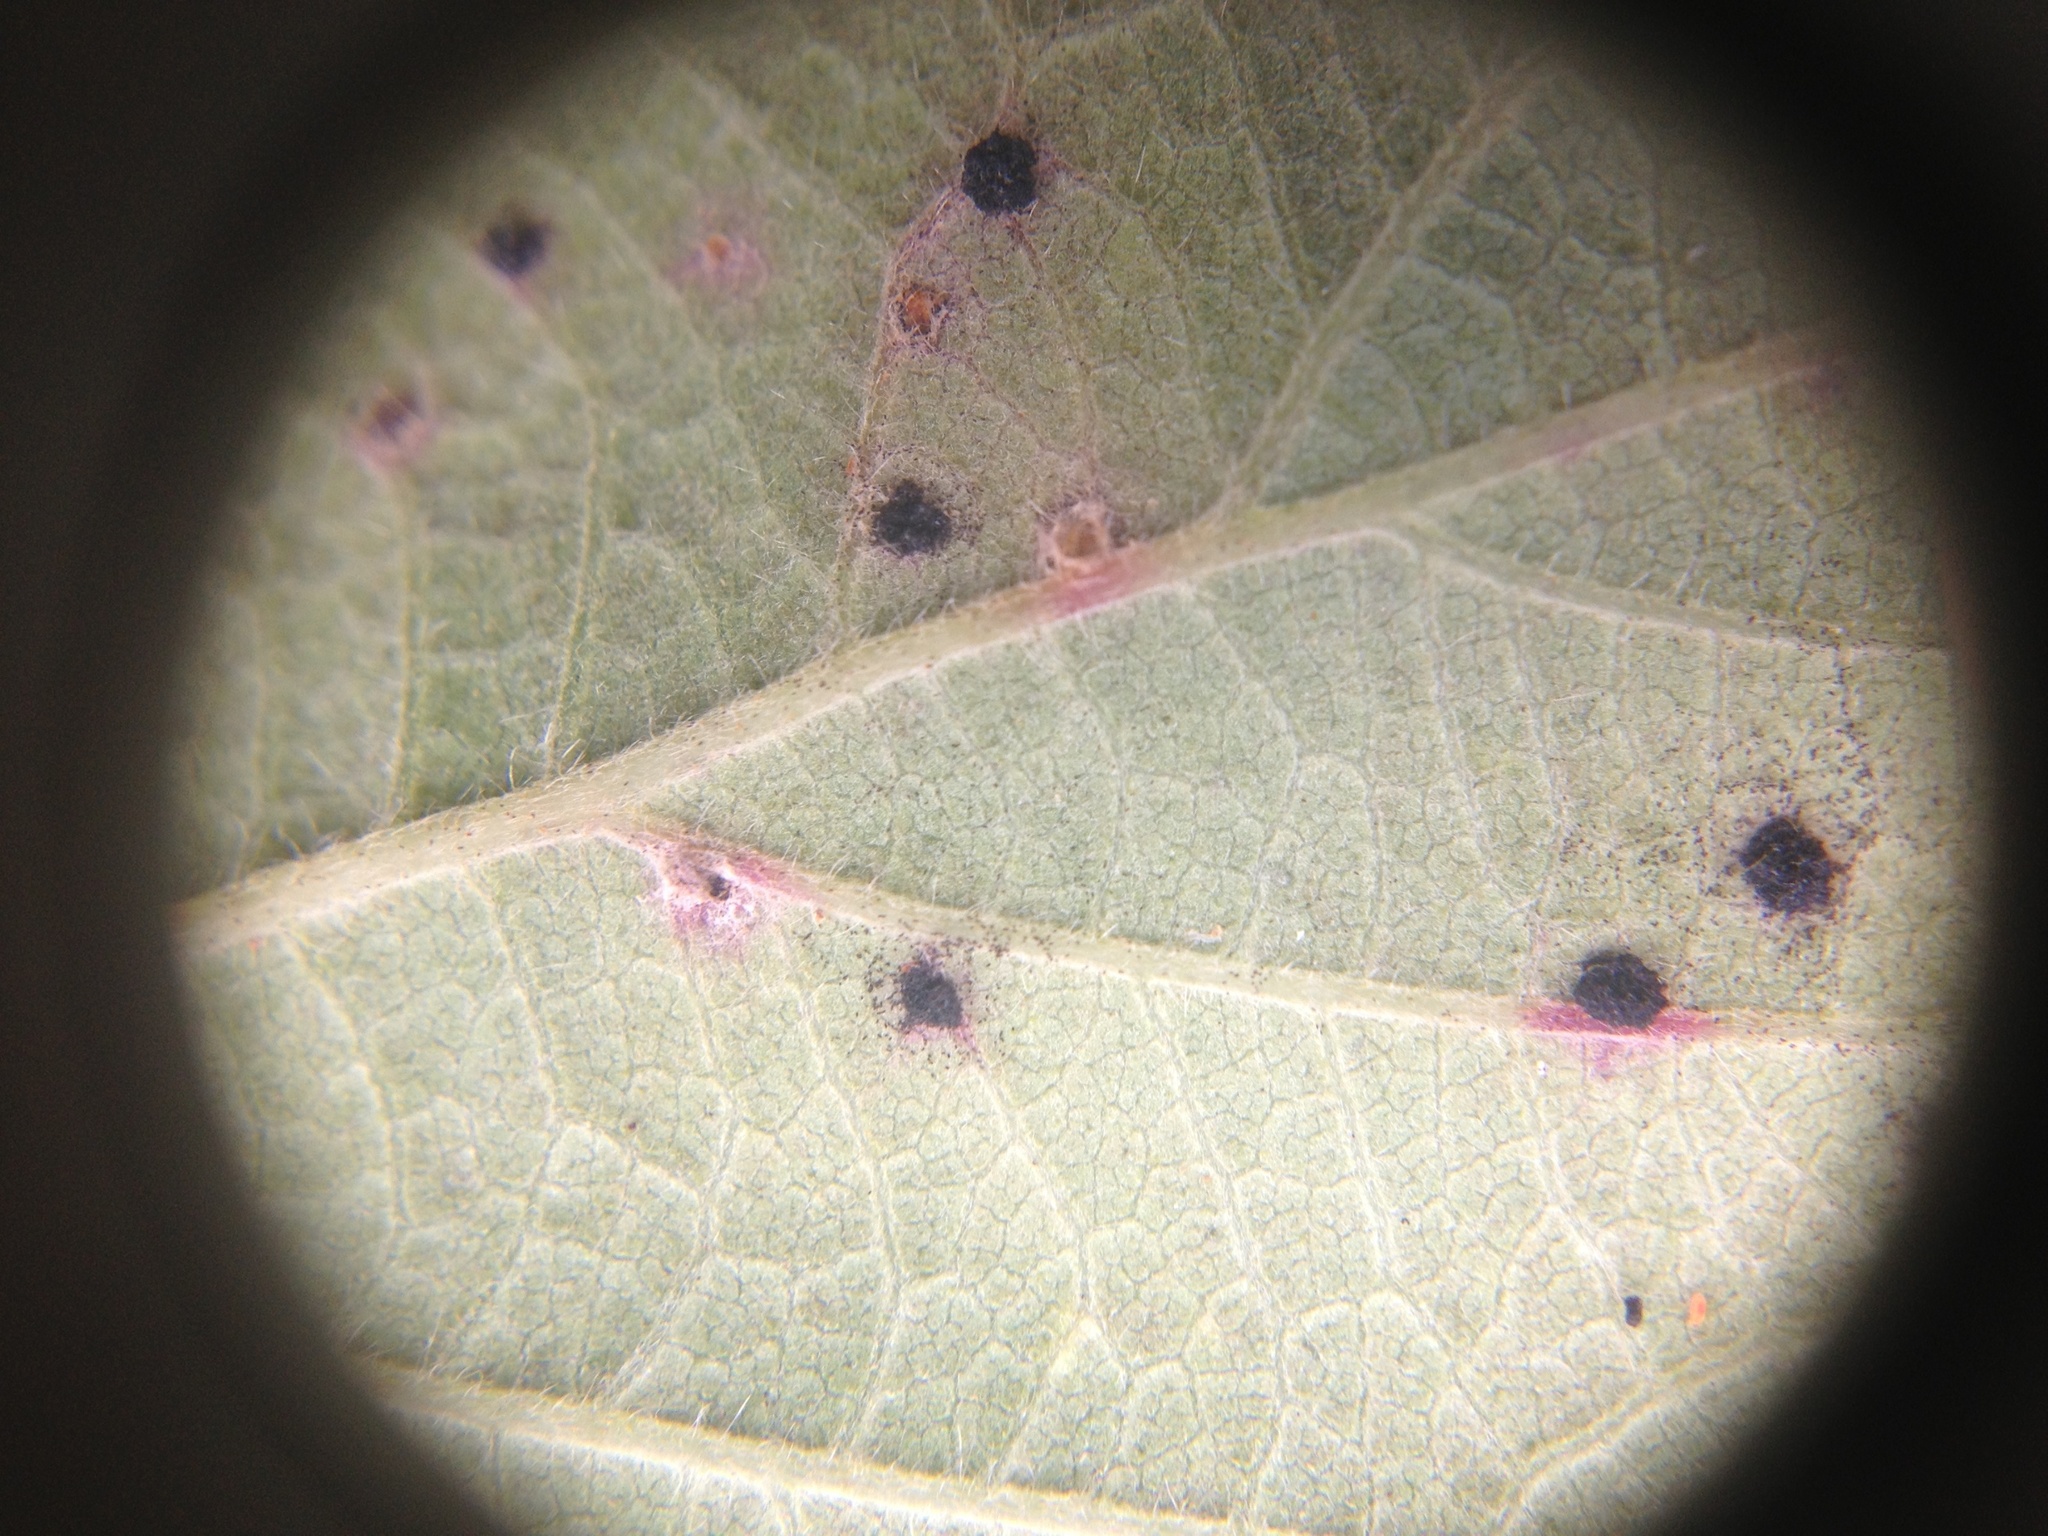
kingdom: Fungi
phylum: Basidiomycota
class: Pucciniomycetes
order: Pucciniales
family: Phragmidiaceae
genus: Phragmidium
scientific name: Phragmidium violaceum
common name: Violet bramble rust
